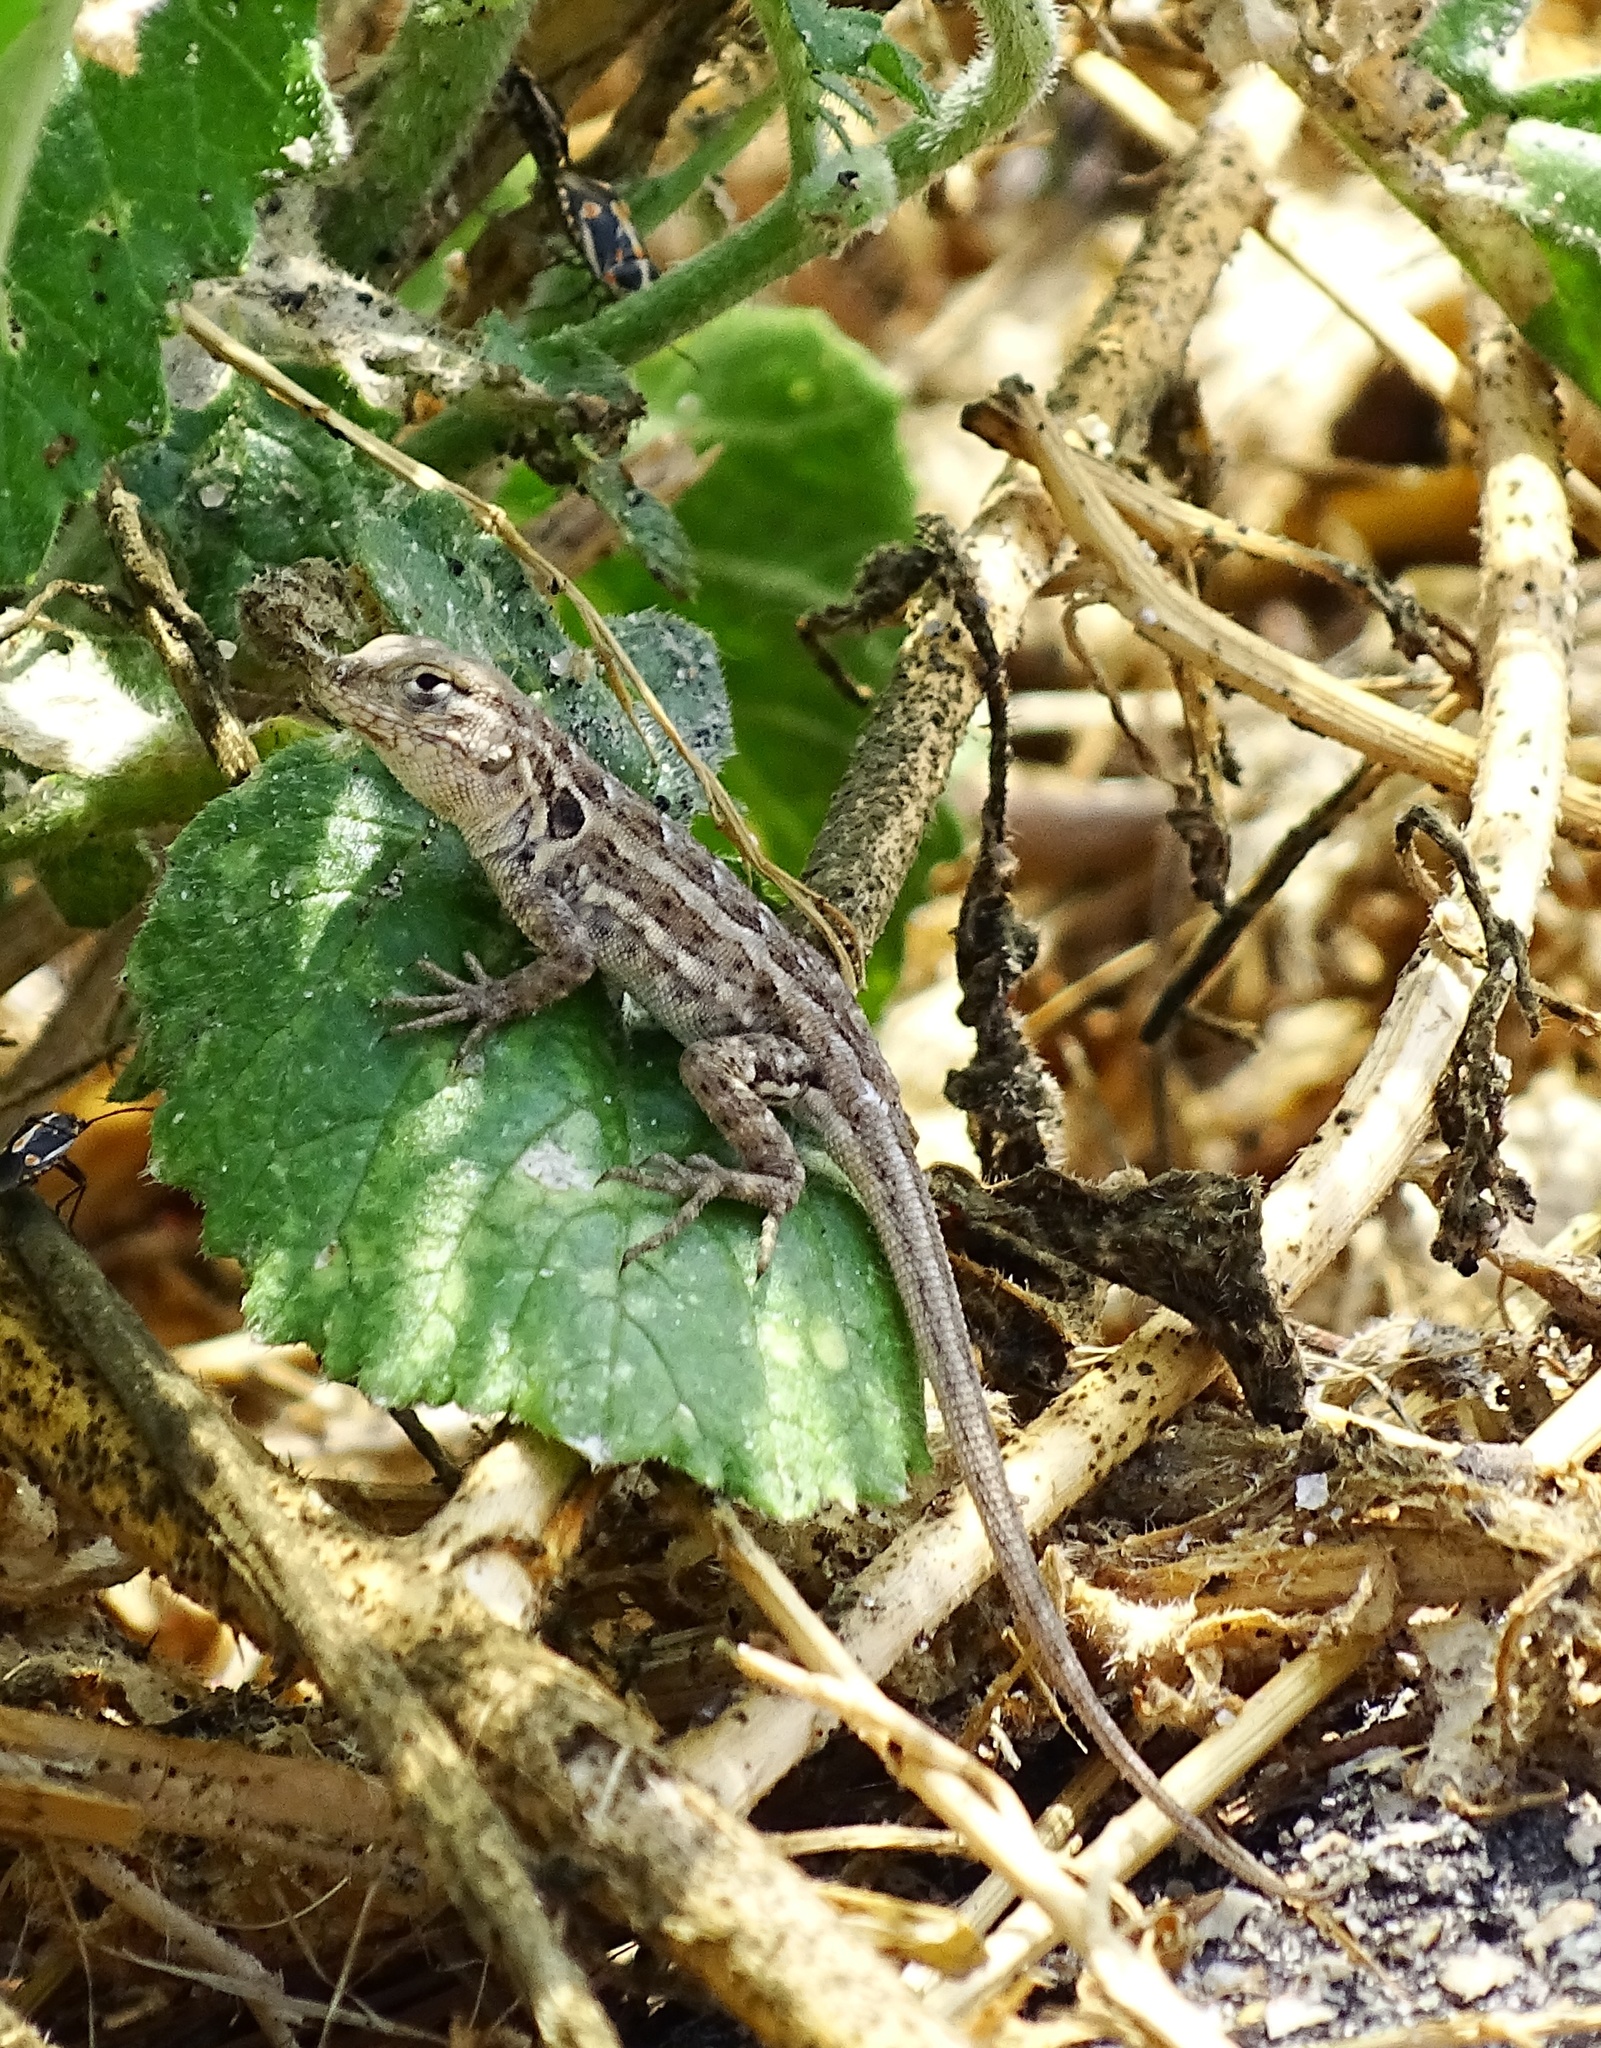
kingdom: Animalia
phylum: Chordata
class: Squamata
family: Phrynosomatidae
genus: Uta
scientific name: Uta stansburiana
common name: Side-blotched lizard
